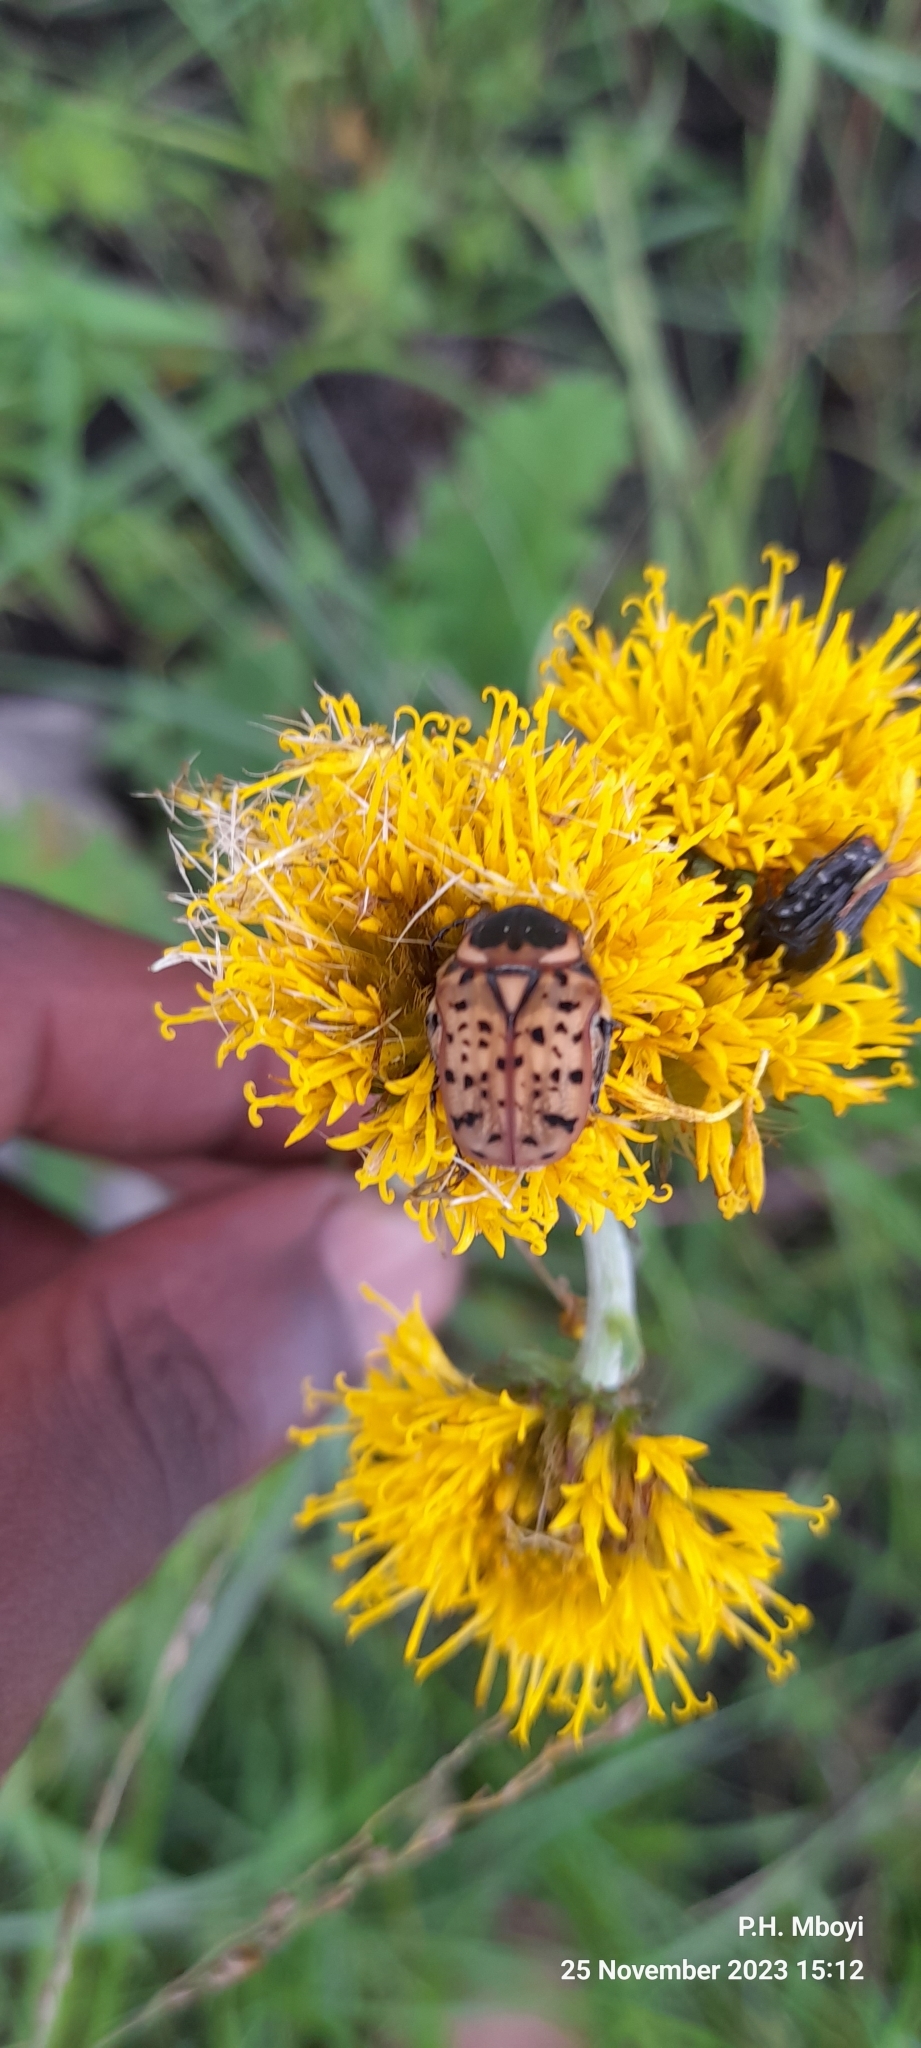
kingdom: Animalia
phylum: Arthropoda
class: Insecta
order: Coleoptera
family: Scarabaeidae
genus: Atrichelaphinis
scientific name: Atrichelaphinis tigrina
